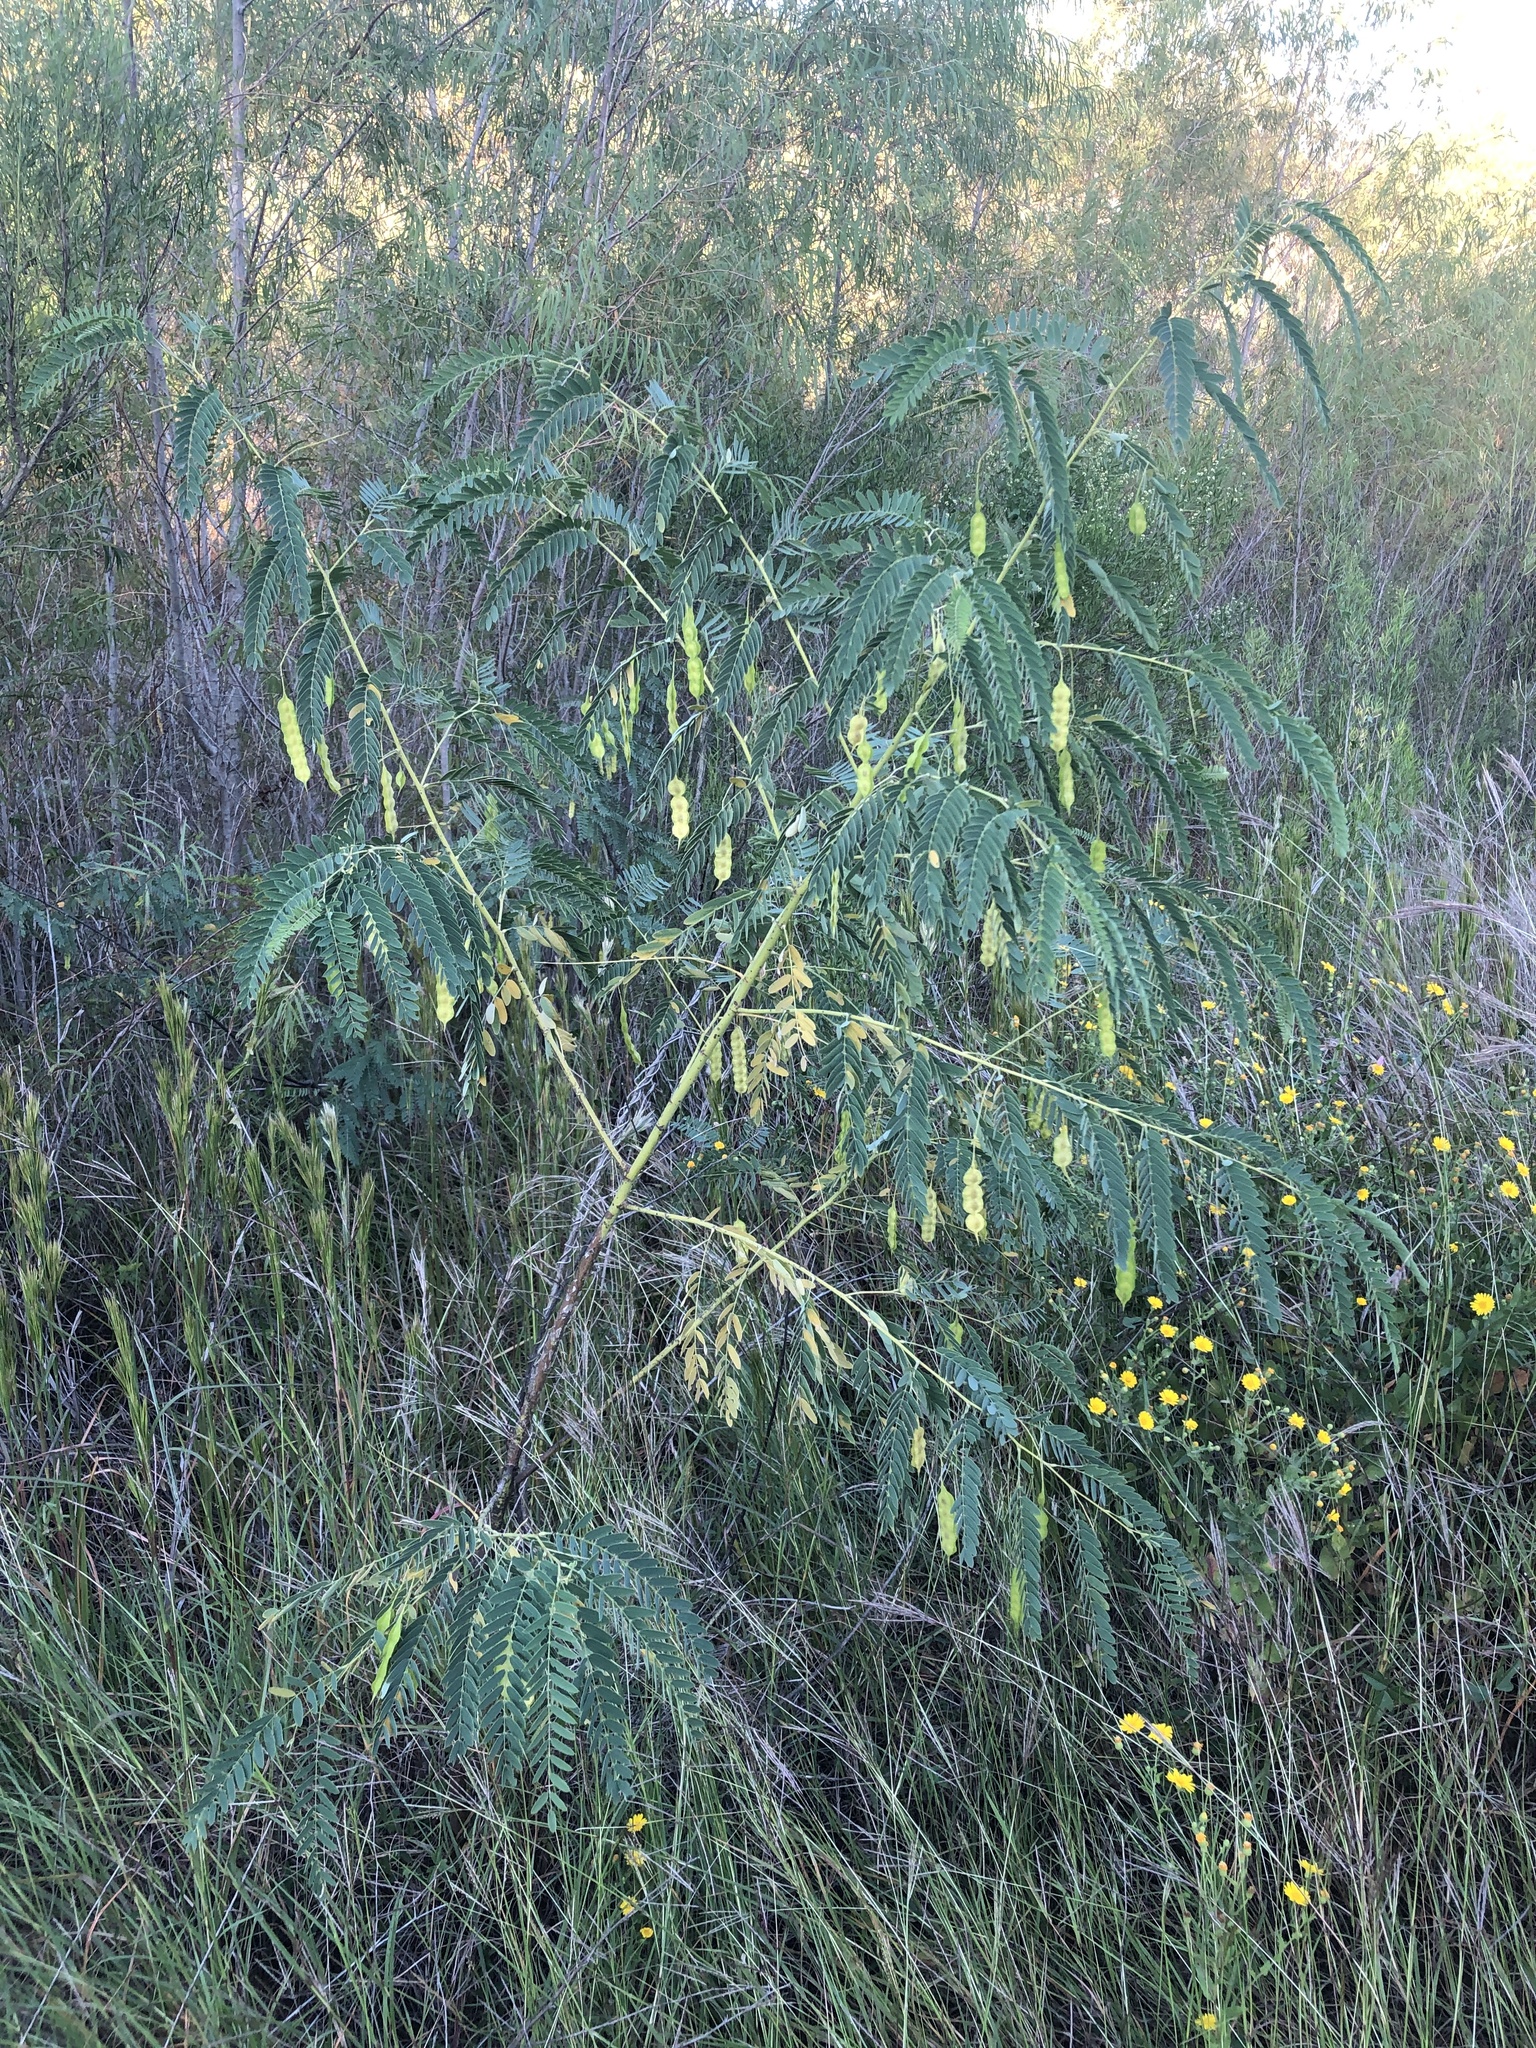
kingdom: Plantae
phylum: Tracheophyta
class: Magnoliopsida
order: Fabales
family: Fabaceae
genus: Sesbania
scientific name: Sesbania drummondii
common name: Poison-bean
